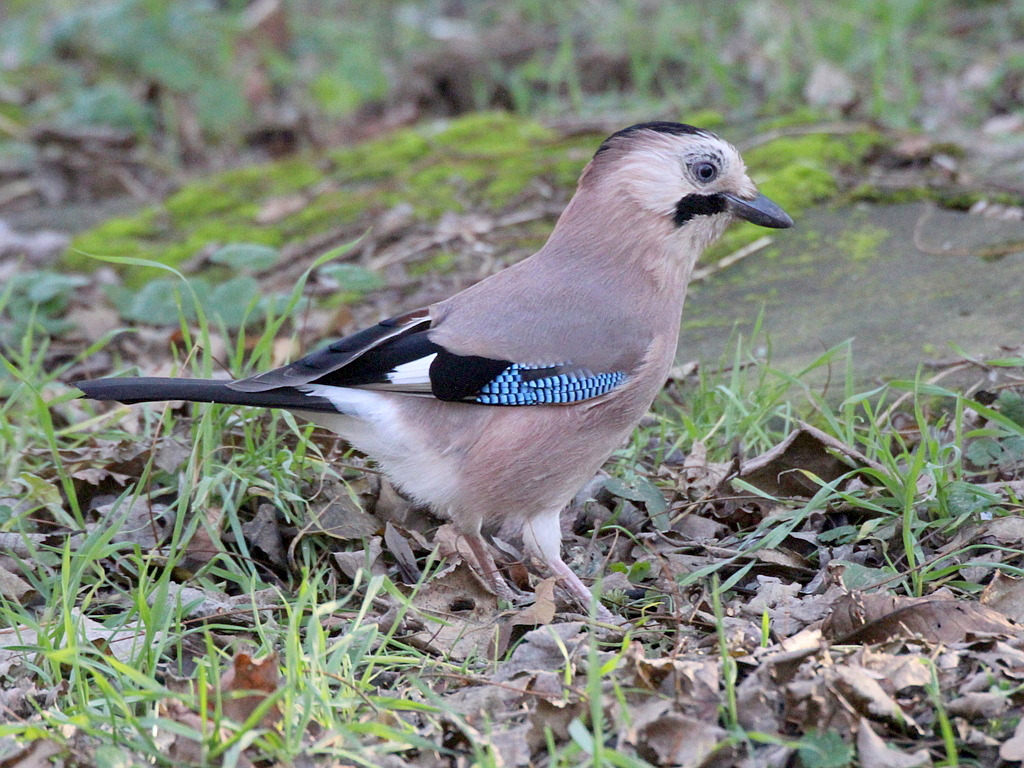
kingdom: Animalia
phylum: Chordata
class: Aves
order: Passeriformes
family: Corvidae
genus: Garrulus
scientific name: Garrulus glandarius
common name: Eurasian jay
